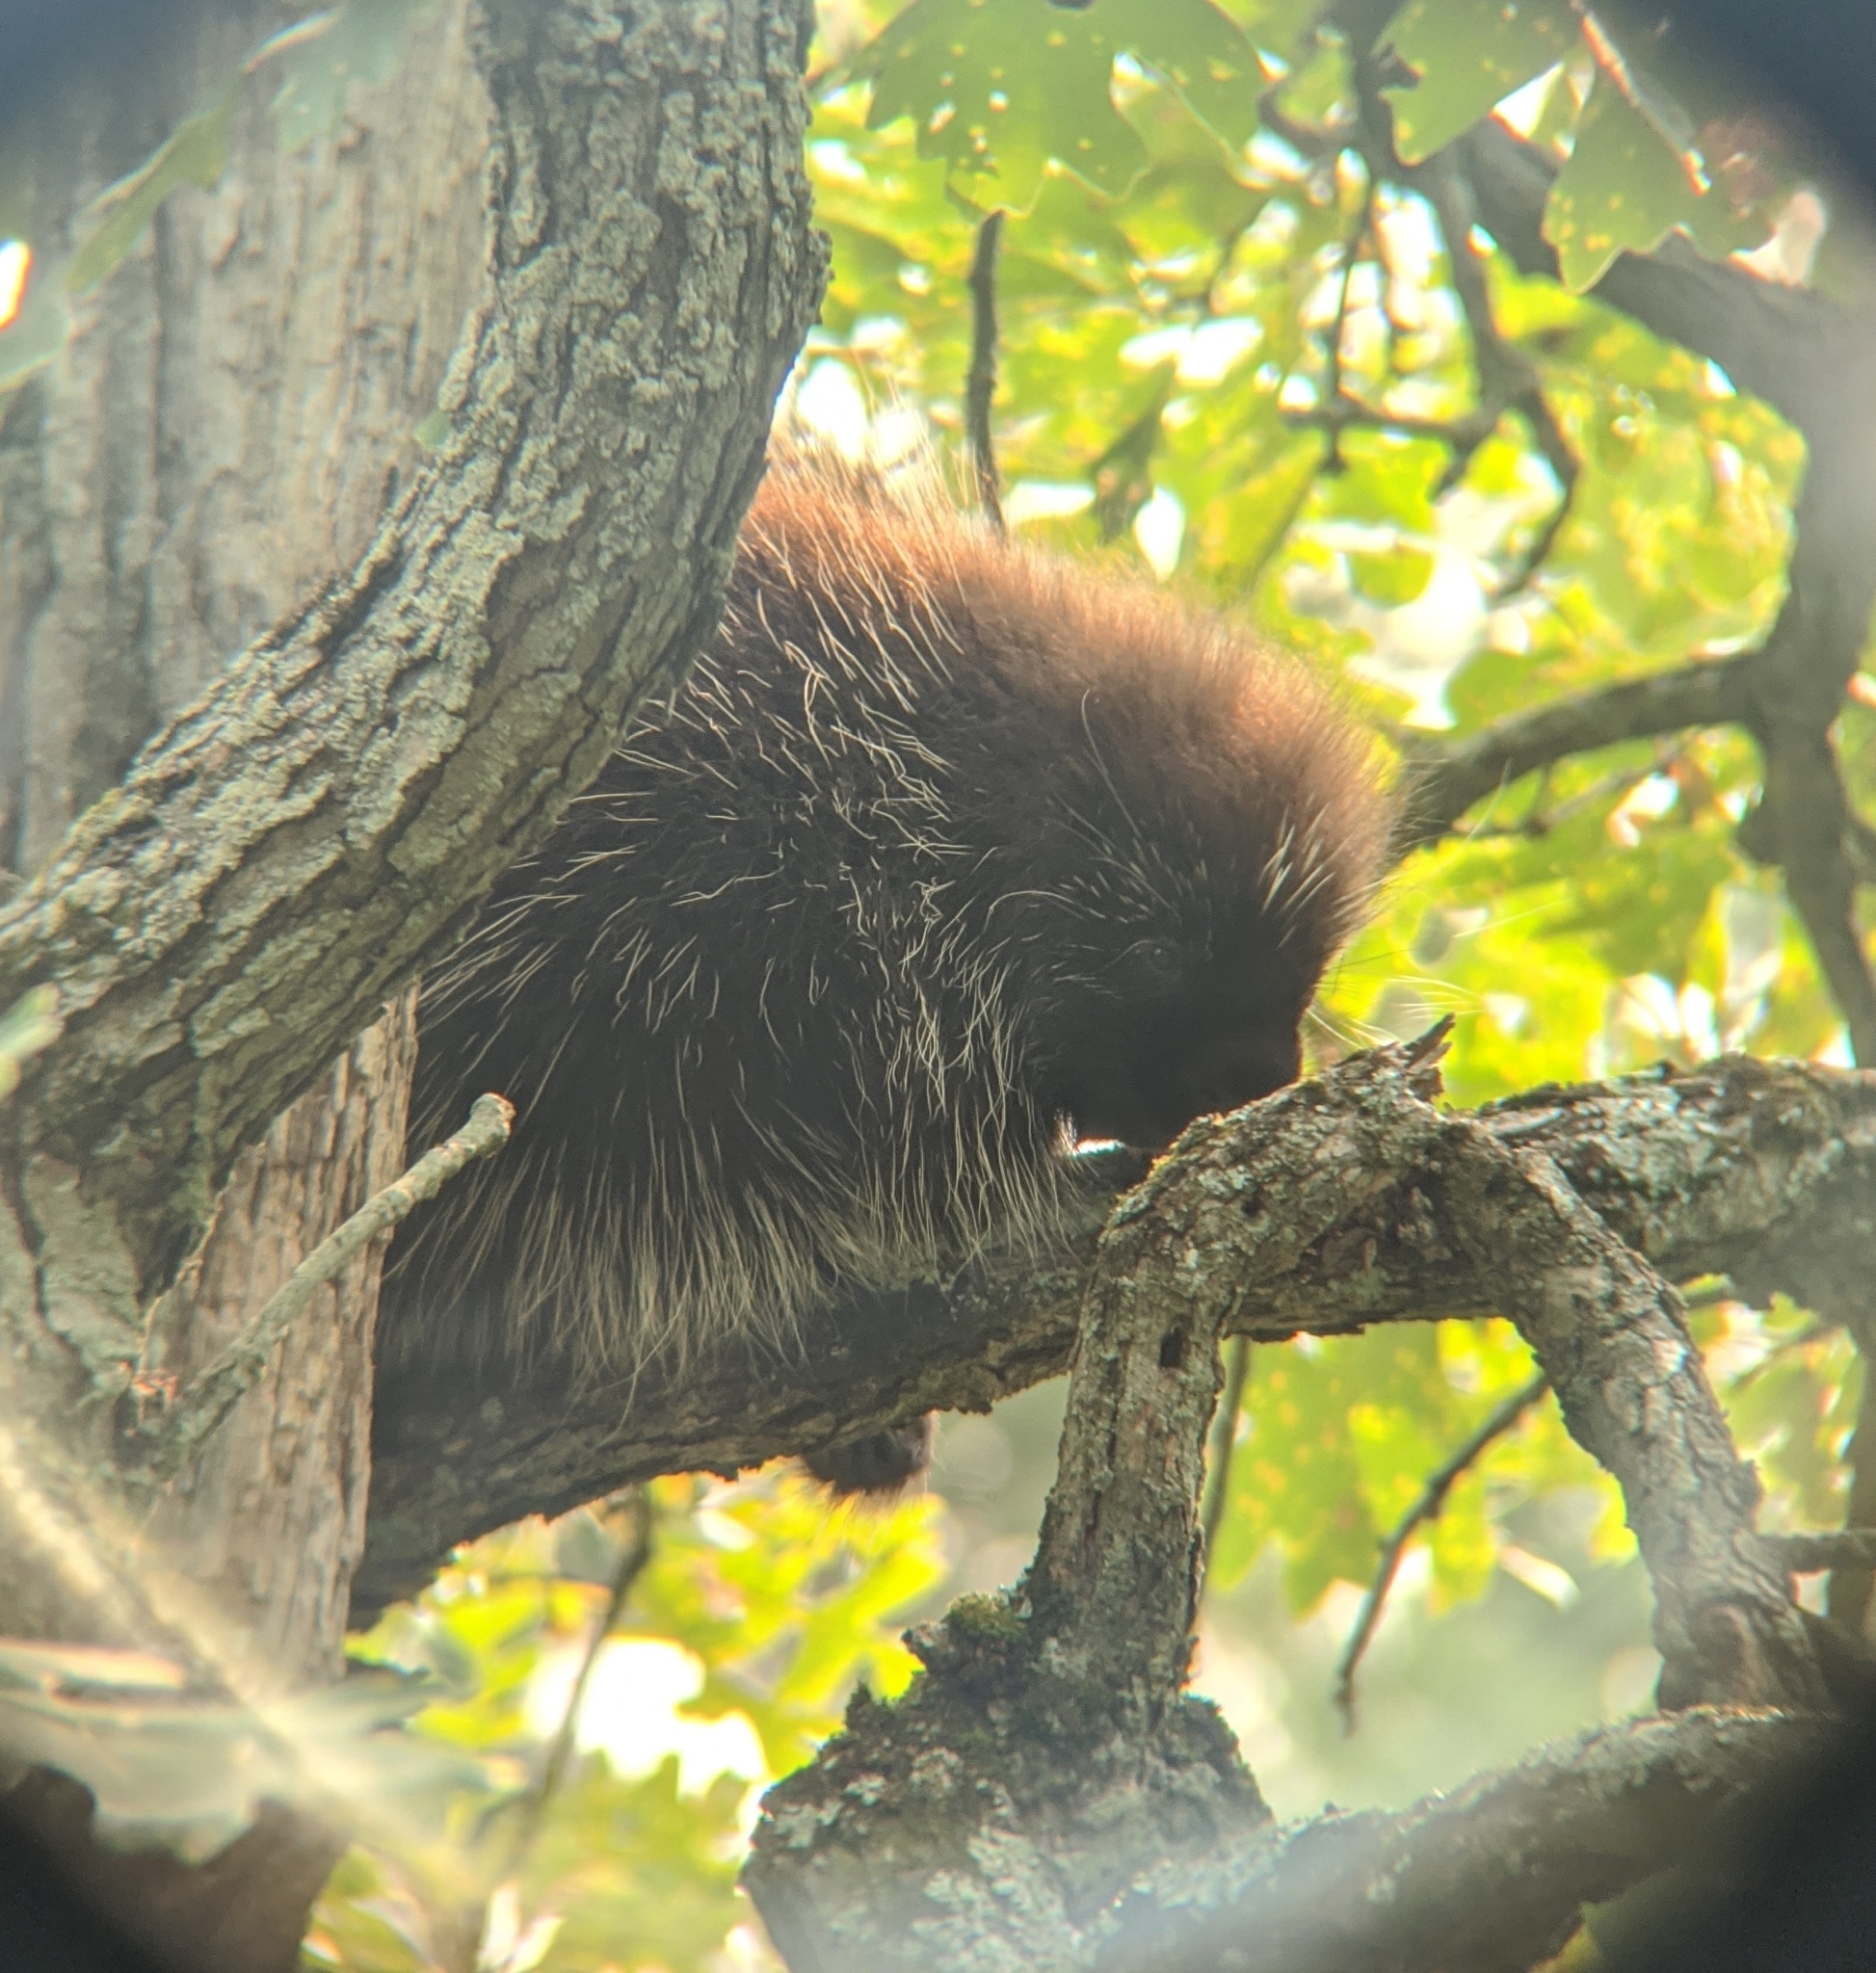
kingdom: Animalia
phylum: Chordata
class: Mammalia
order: Rodentia
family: Erethizontidae
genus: Erethizon
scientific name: Erethizon dorsatus
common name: North american porcupine
